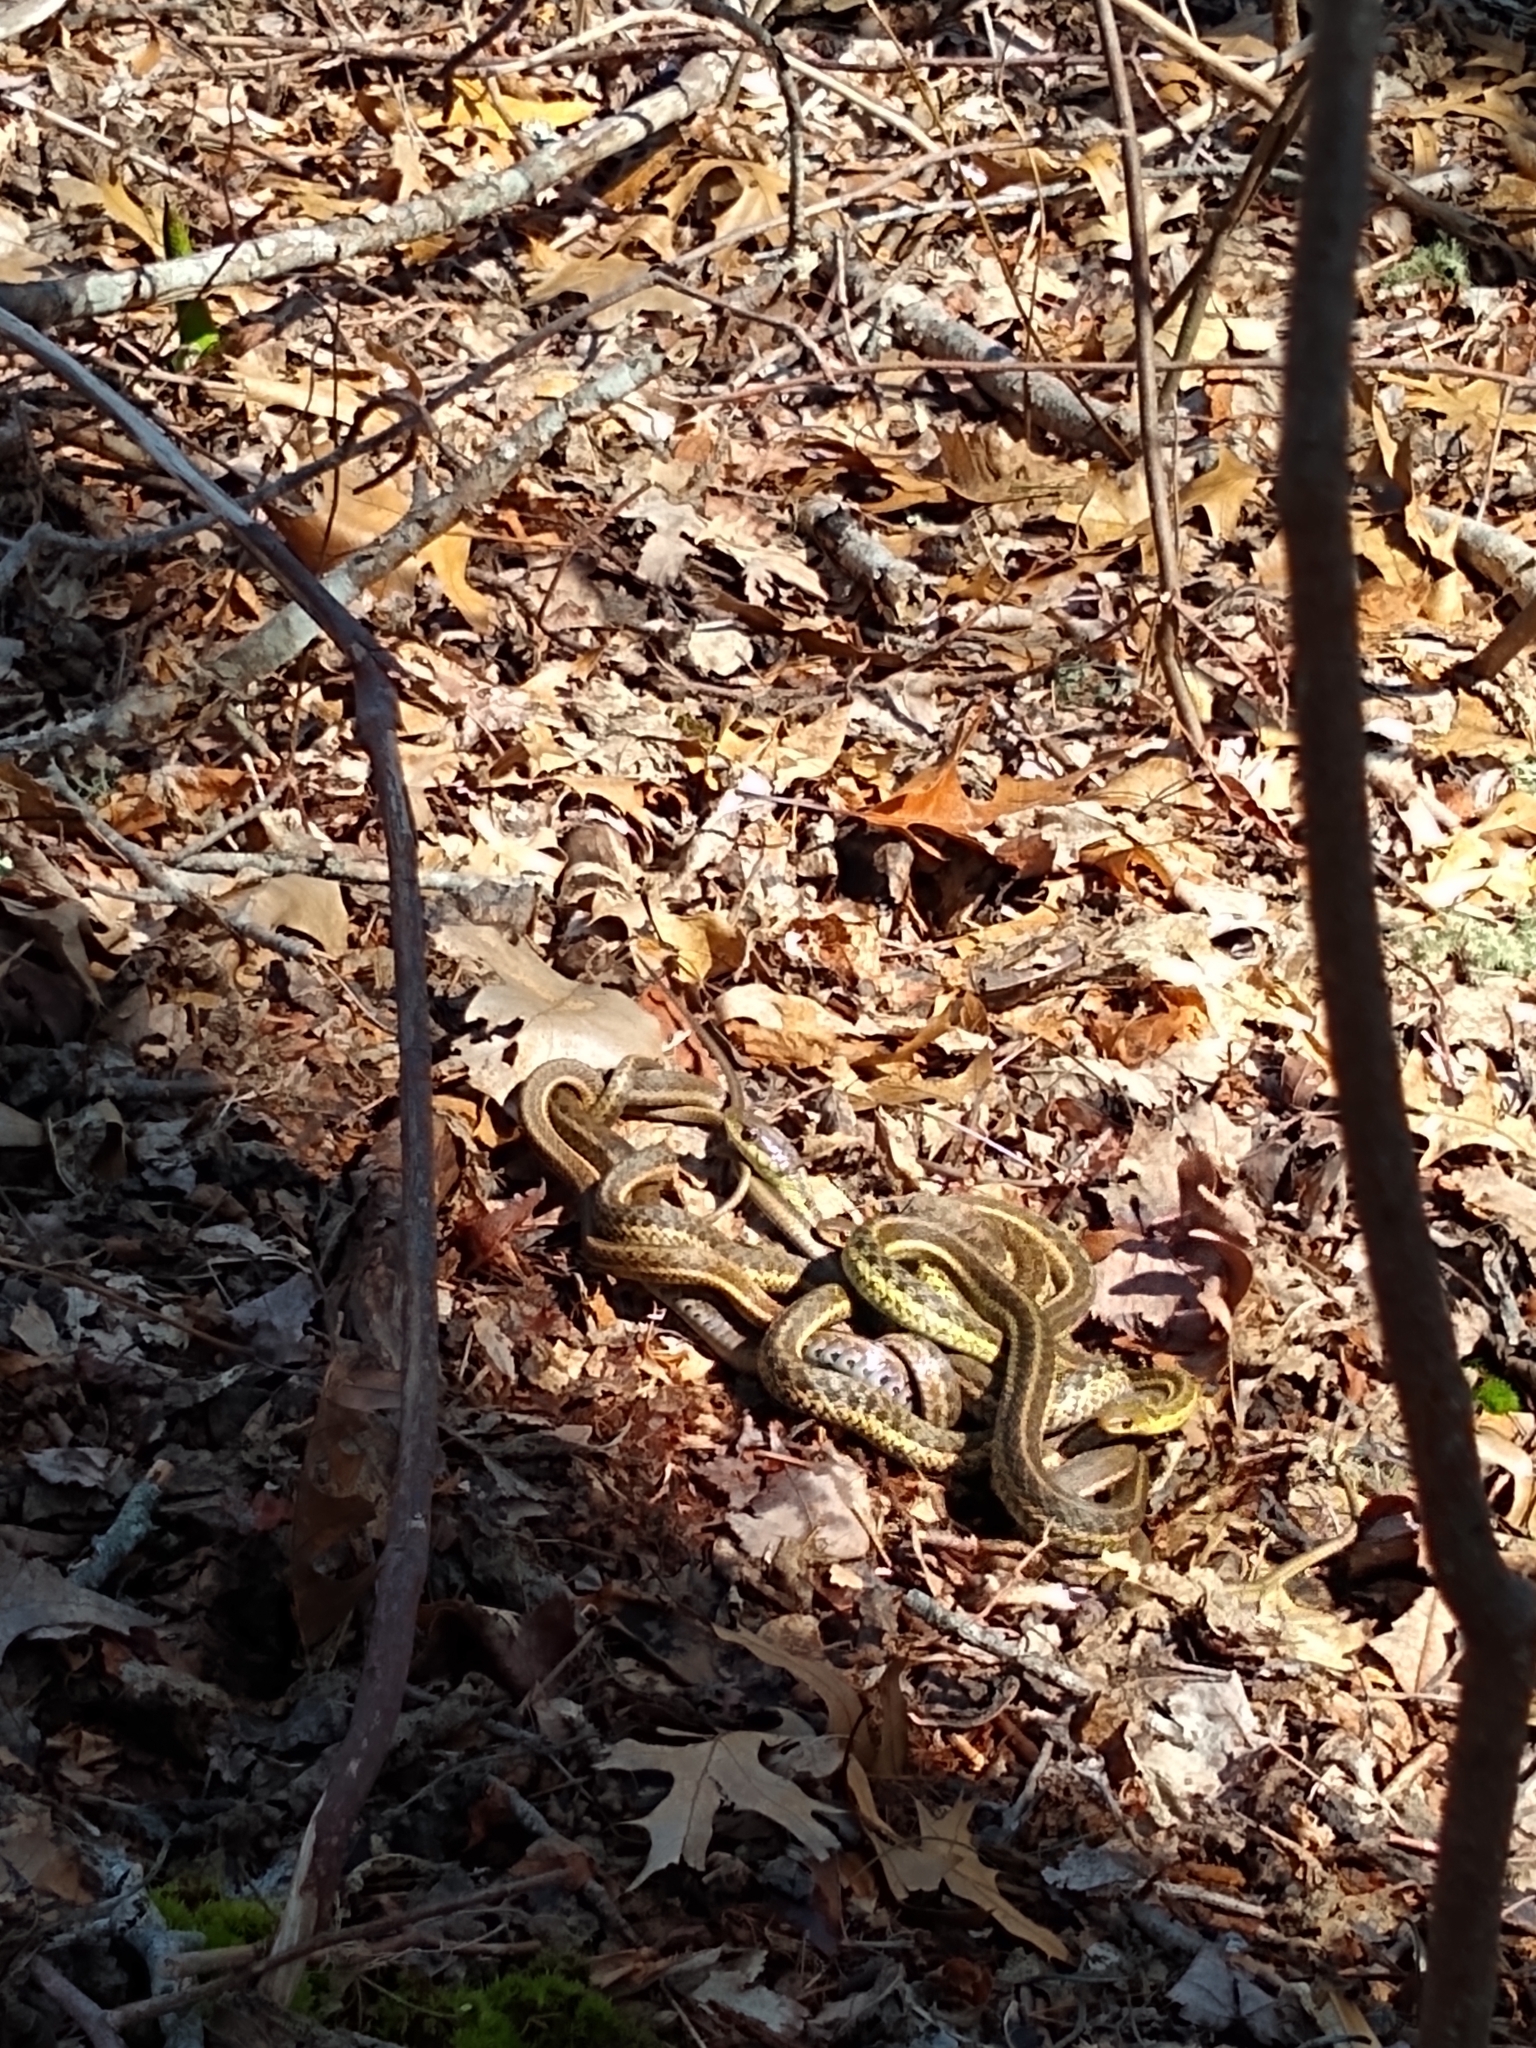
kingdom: Animalia
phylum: Chordata
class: Squamata
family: Colubridae
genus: Thamnophis
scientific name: Thamnophis sirtalis
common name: Common garter snake
